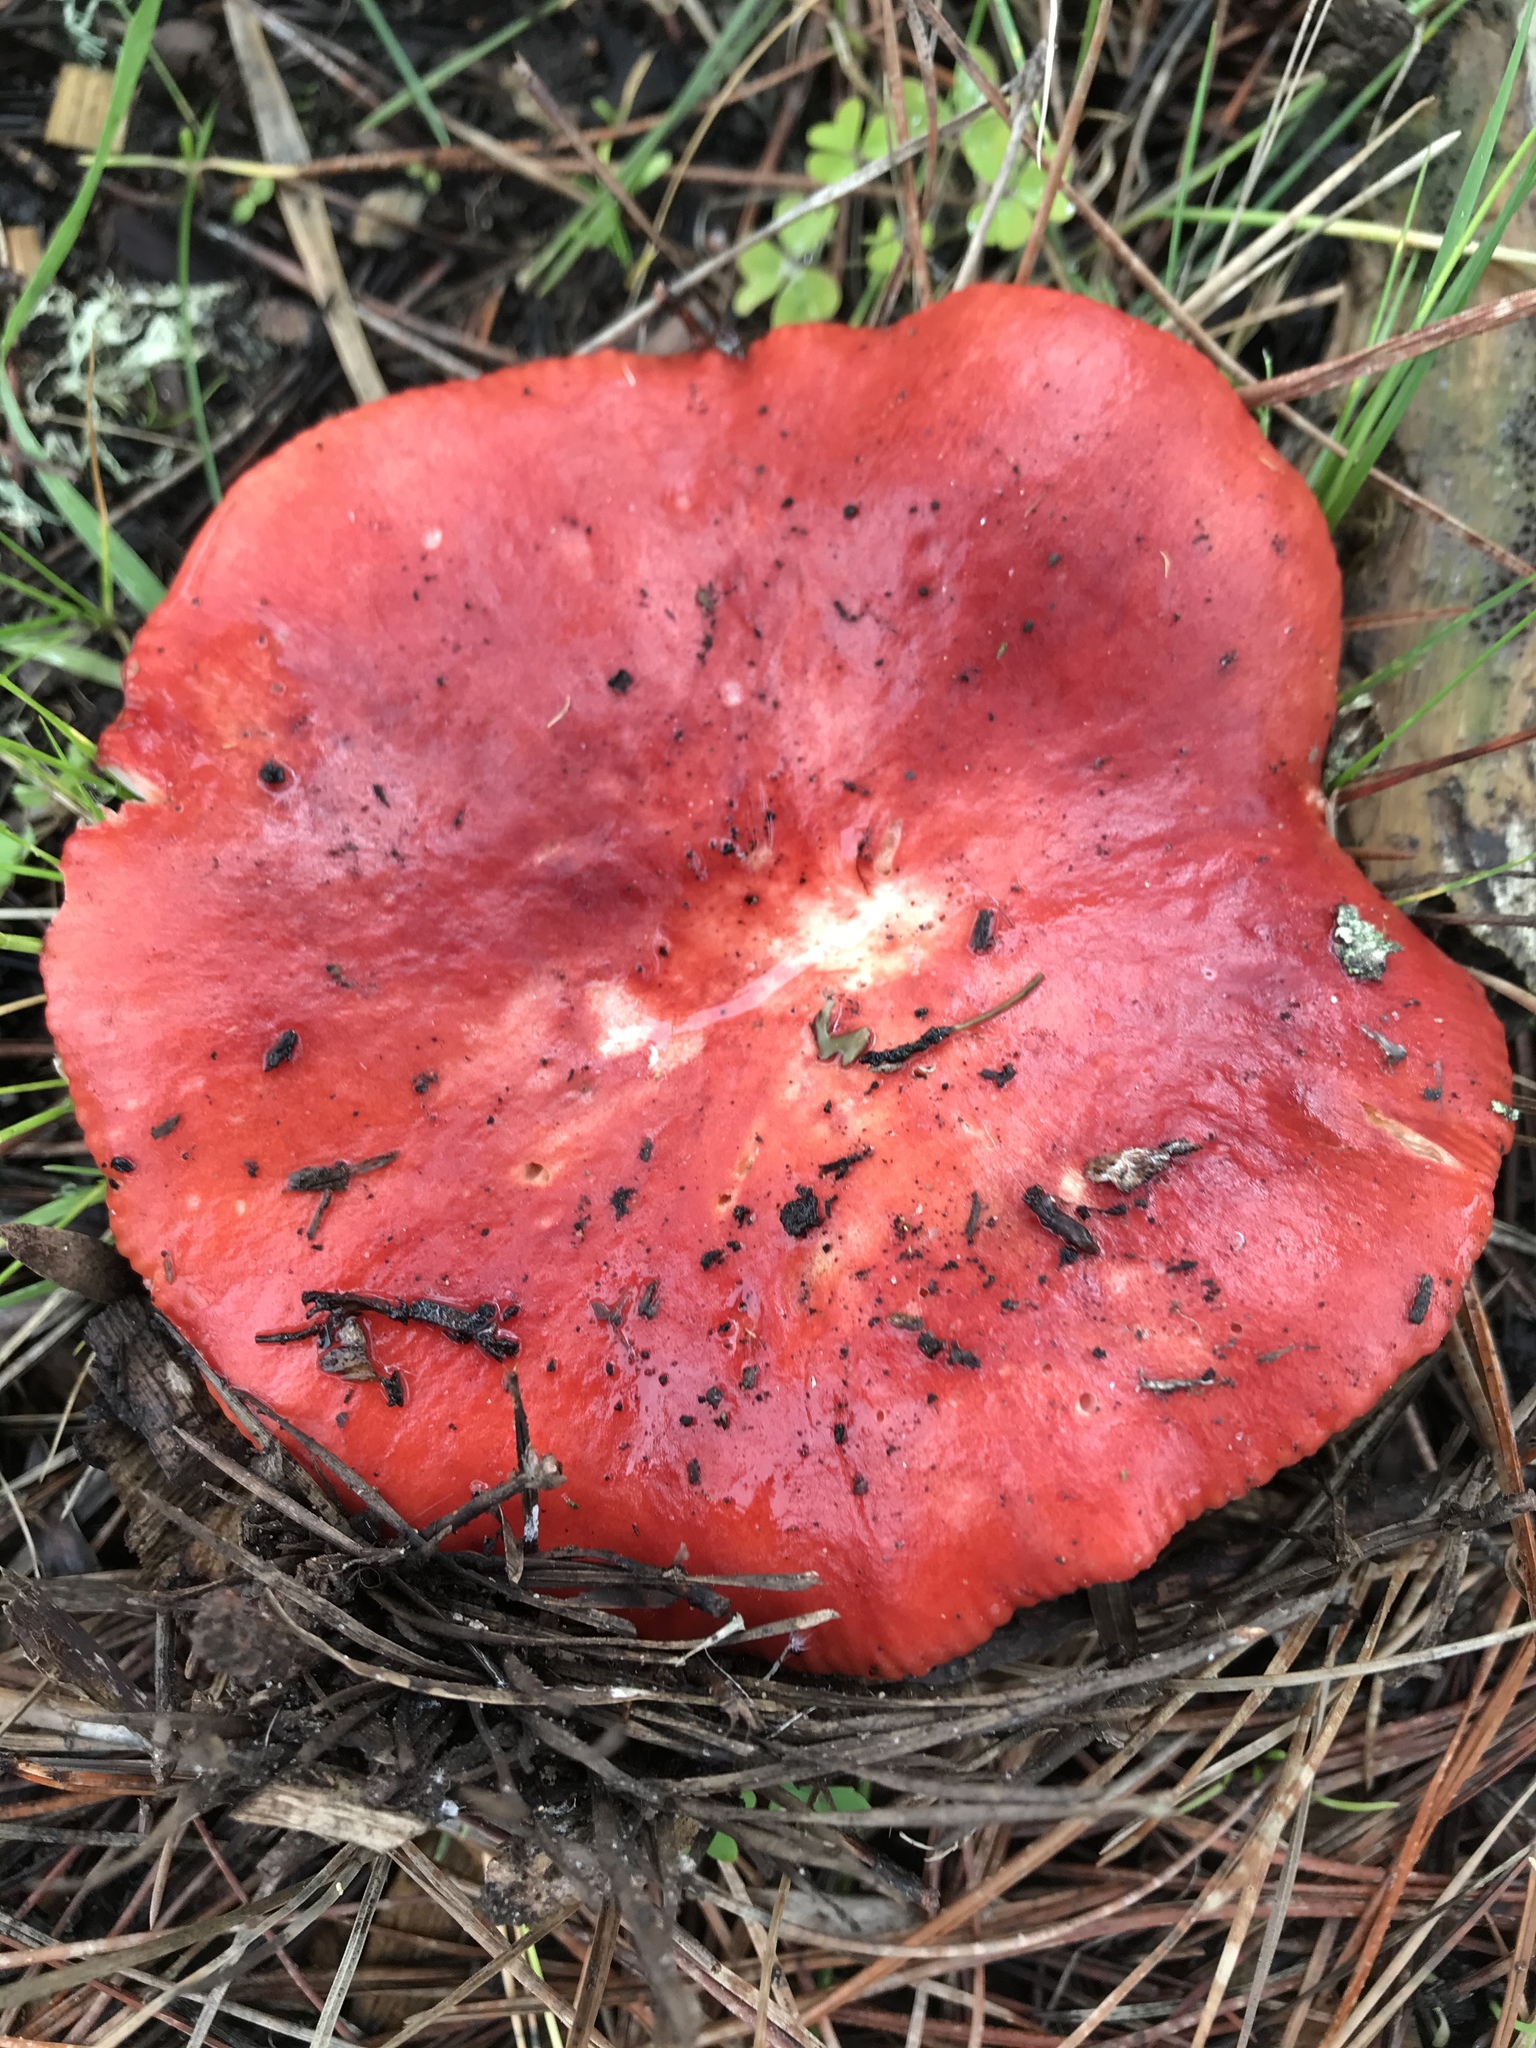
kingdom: Fungi
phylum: Basidiomycota
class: Agaricomycetes
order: Russulales
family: Russulaceae
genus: Russula
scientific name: Russula rhodocephala
